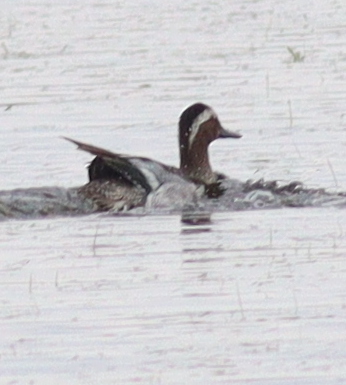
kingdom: Animalia
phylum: Chordata
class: Aves
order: Anseriformes
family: Anatidae
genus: Spatula
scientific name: Spatula querquedula
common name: Garganey
